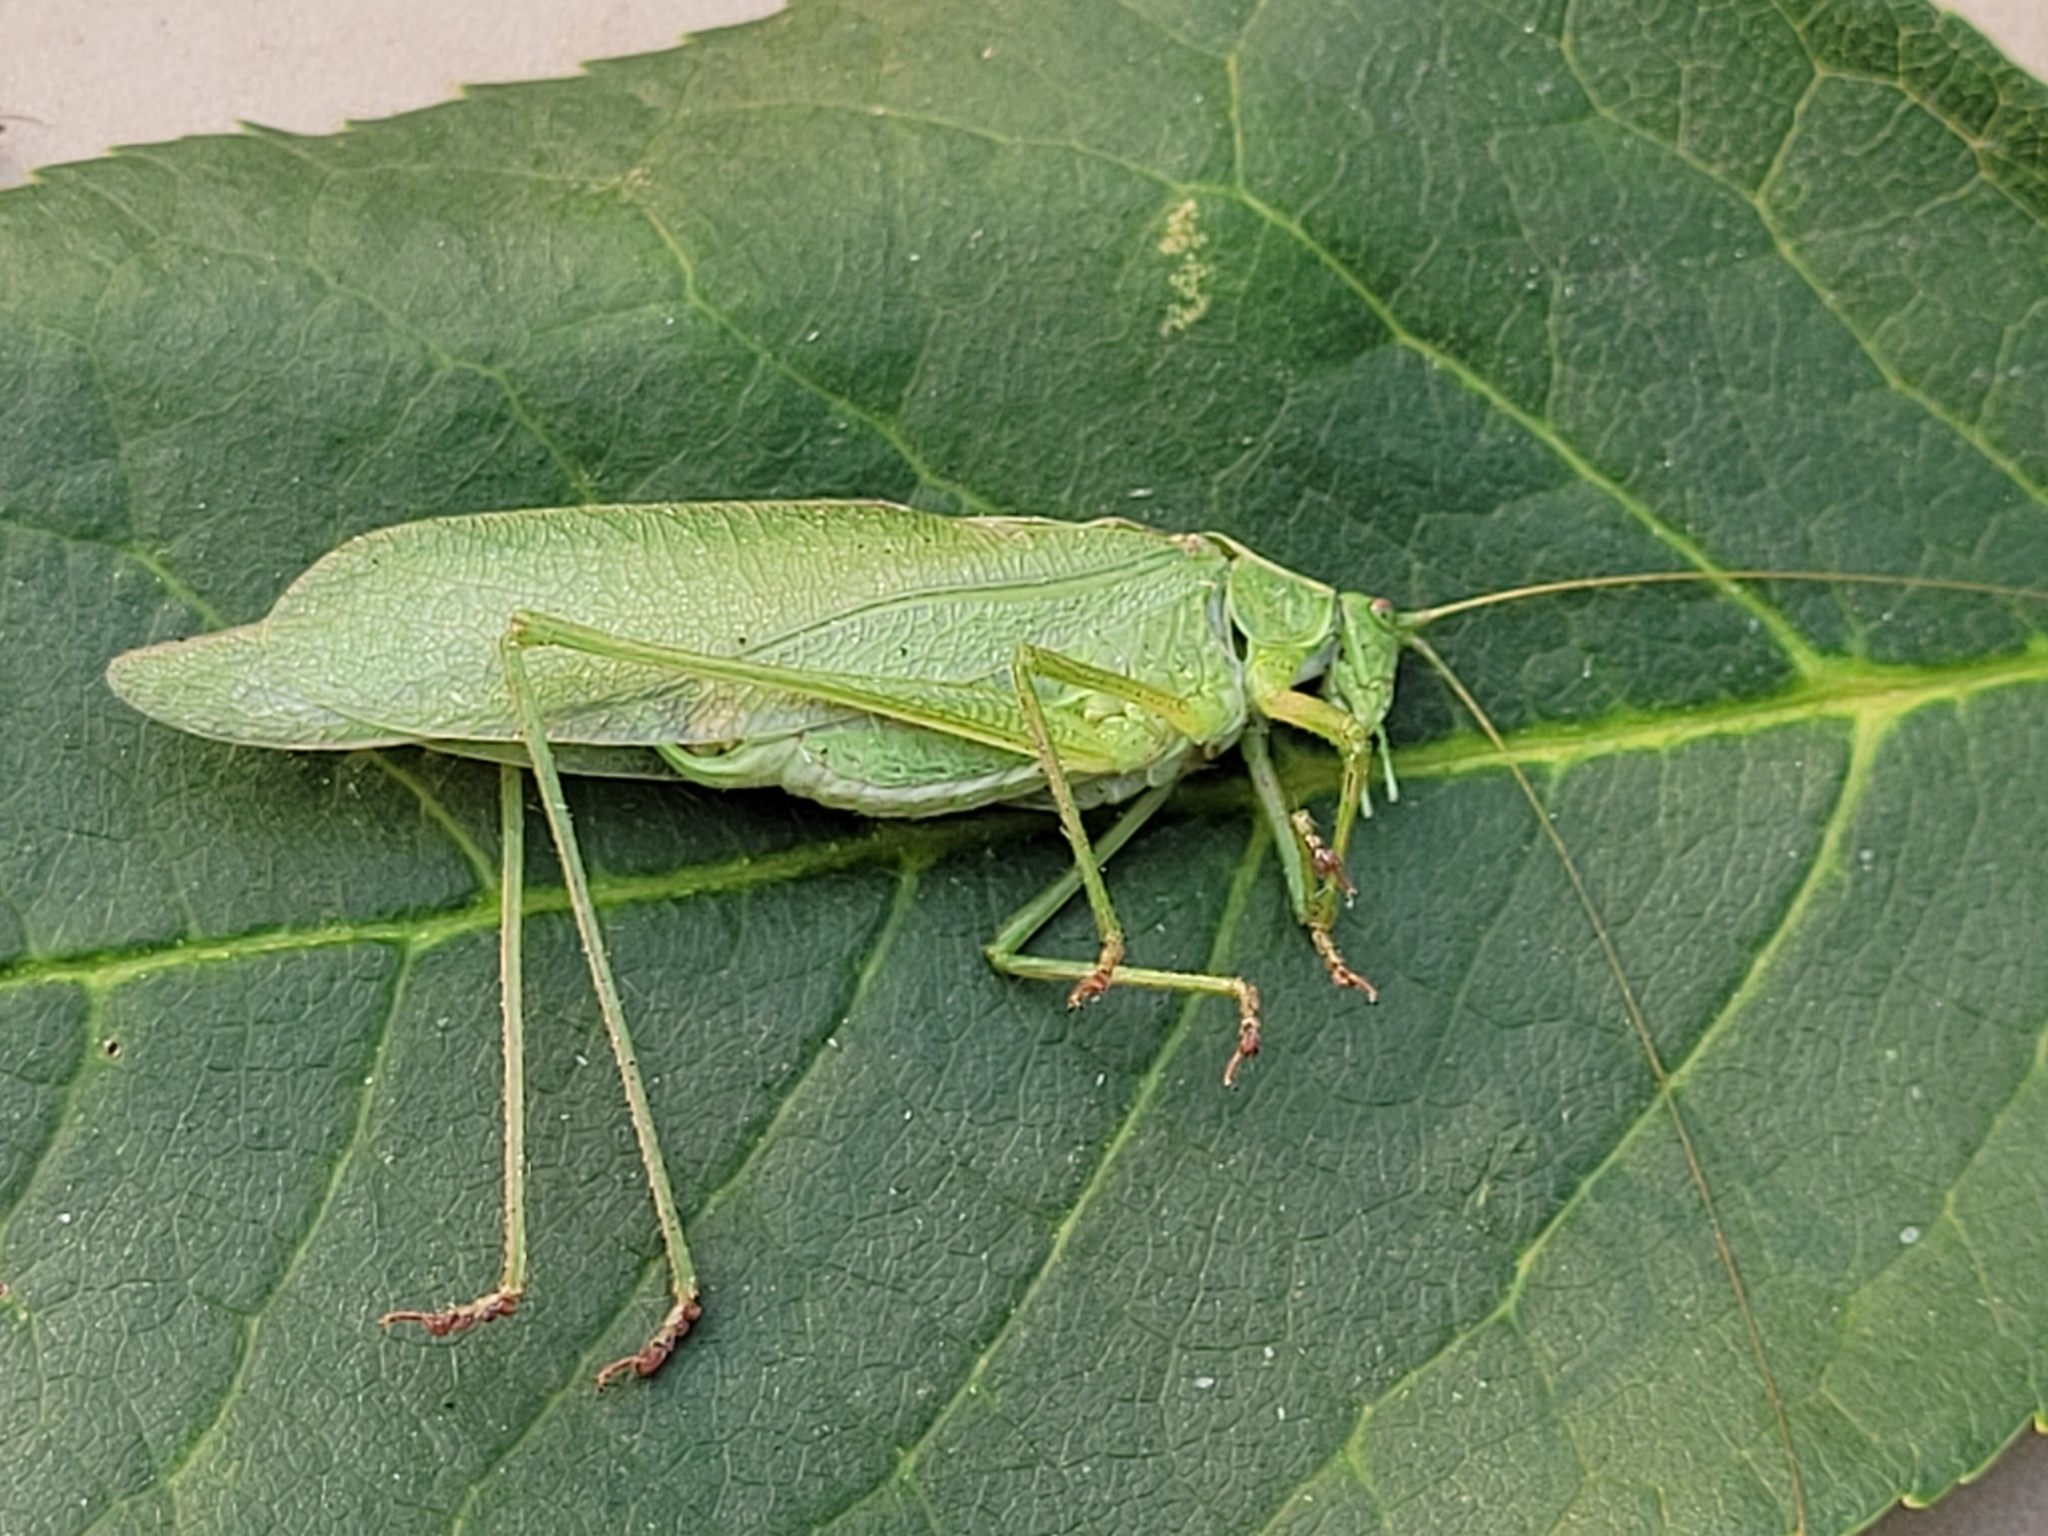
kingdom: Animalia
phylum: Arthropoda
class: Insecta
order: Orthoptera
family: Tettigoniidae
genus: Scudderia
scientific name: Scudderia pistillata
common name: Broad-winged bush-katydid
